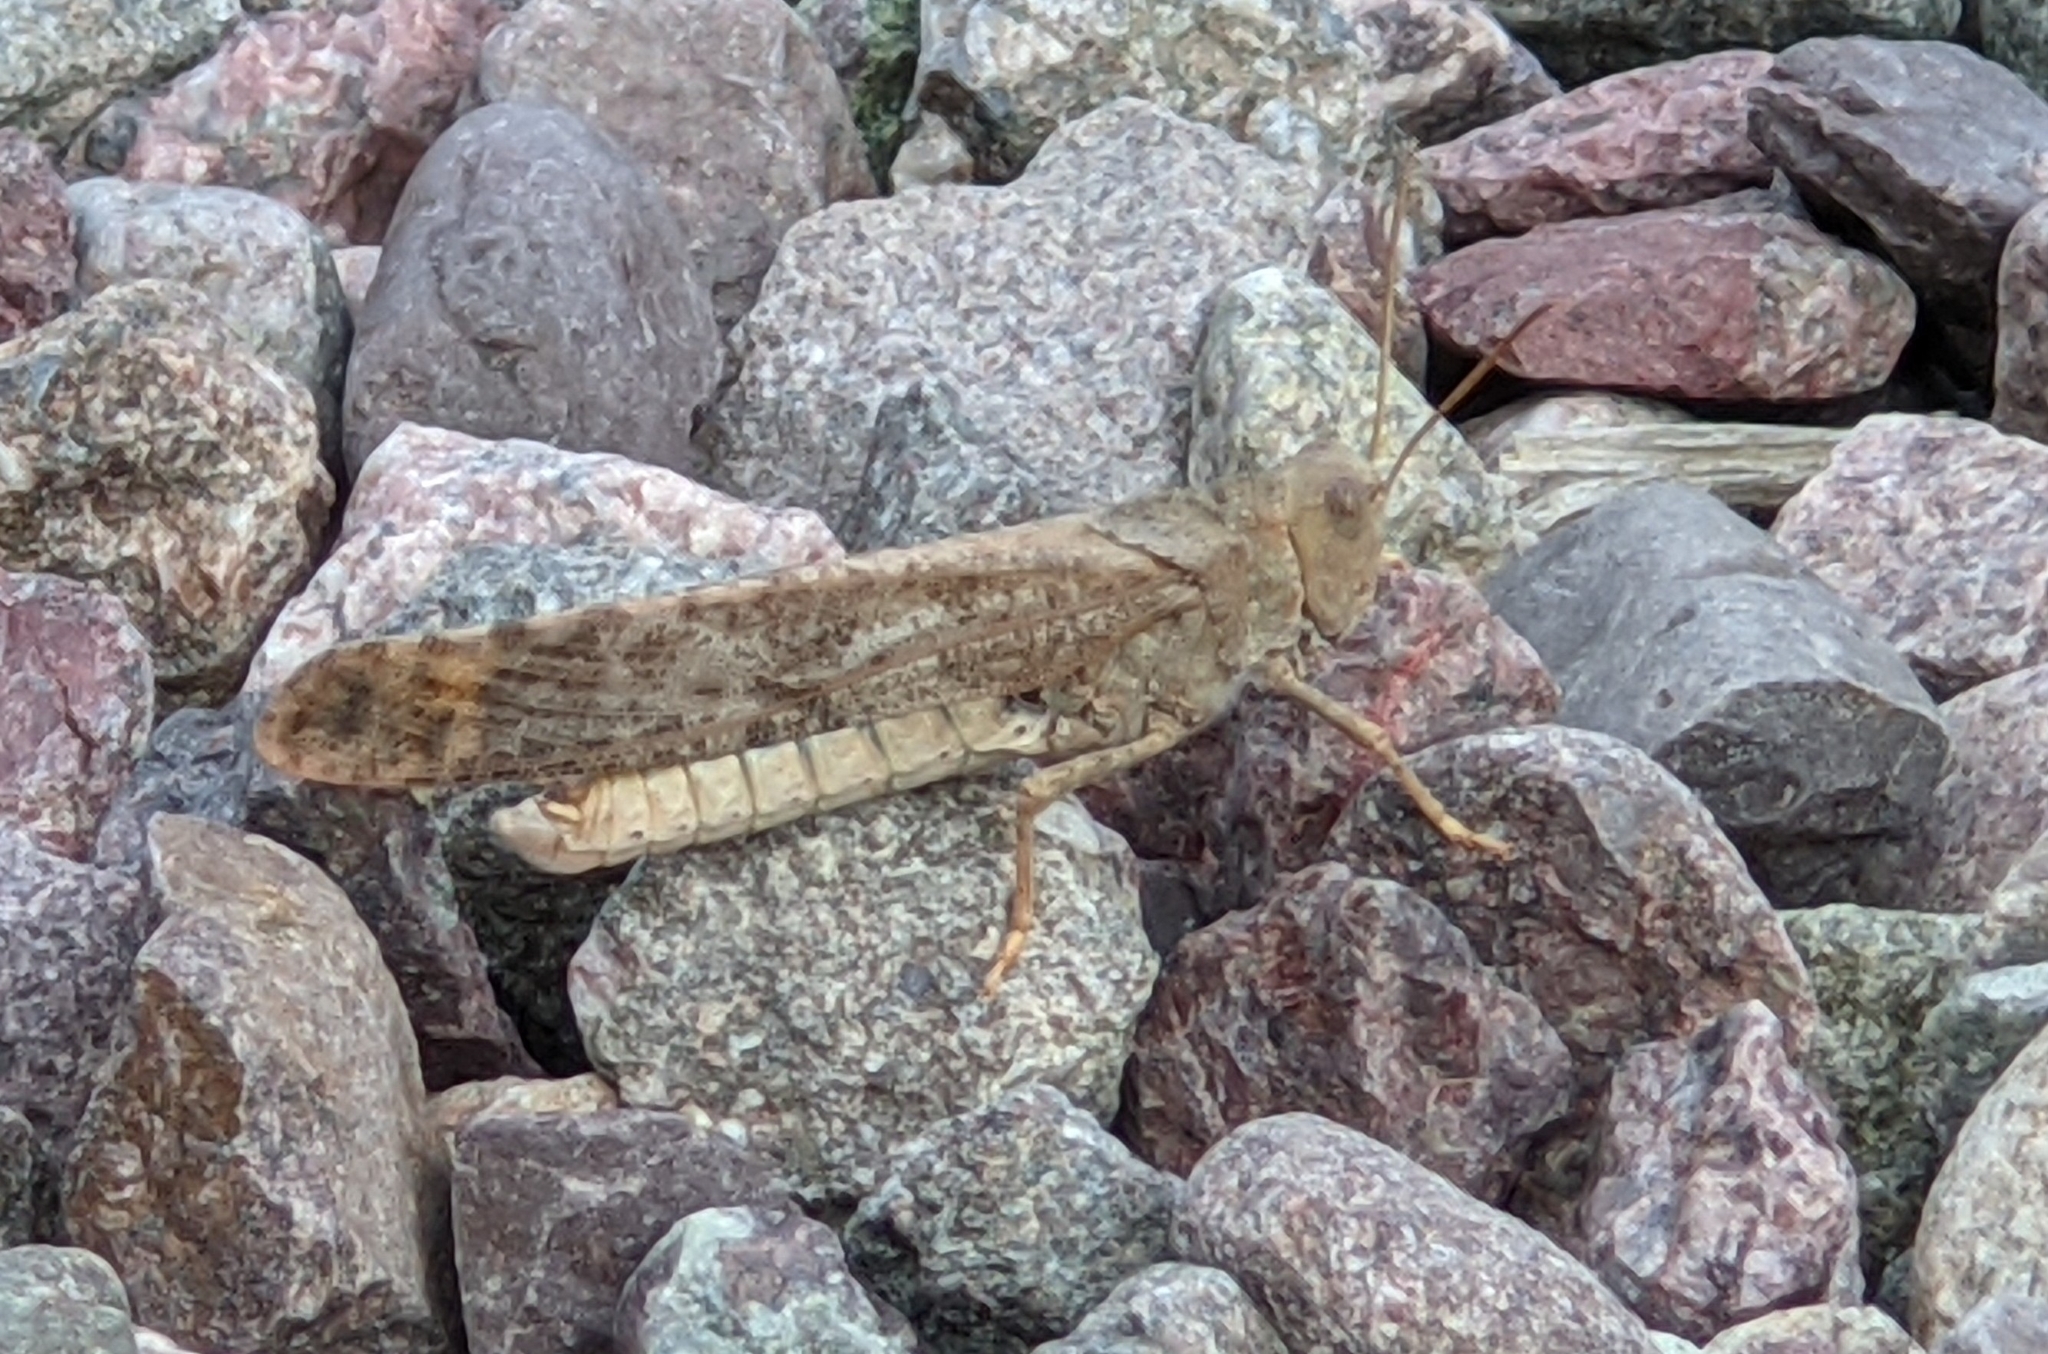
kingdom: Animalia
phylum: Arthropoda
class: Insecta
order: Orthoptera
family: Acrididae
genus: Dissosteira
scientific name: Dissosteira carolina
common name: Carolina grasshopper
